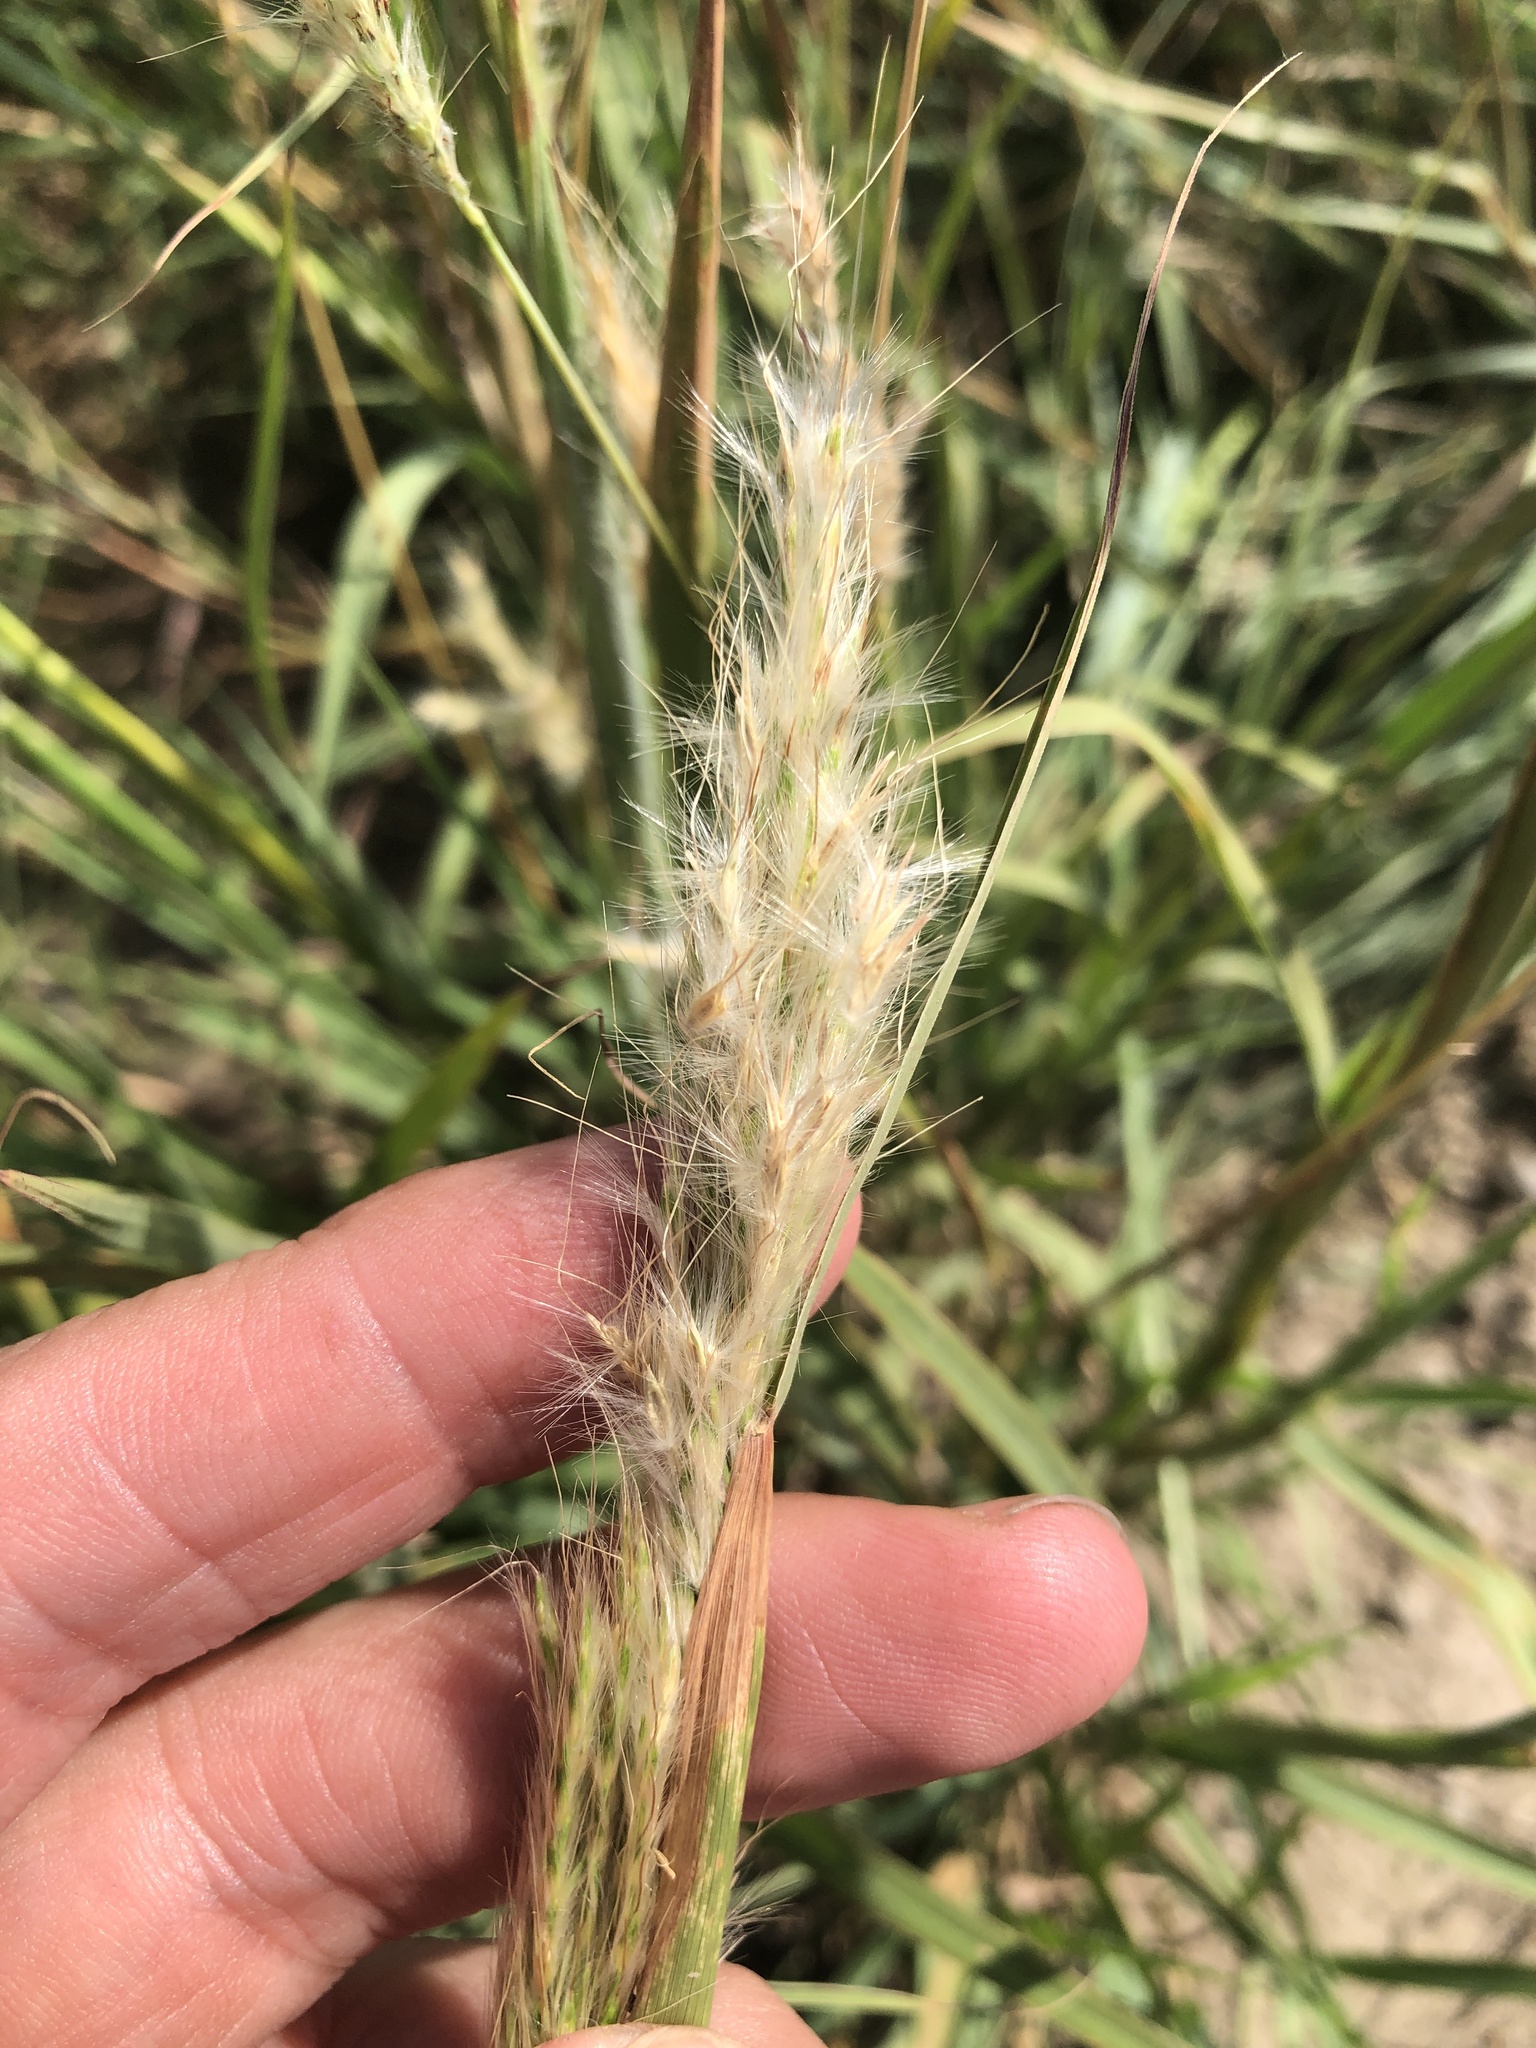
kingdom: Plantae
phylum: Tracheophyta
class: Liliopsida
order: Poales
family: Poaceae
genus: Bothriochloa
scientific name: Bothriochloa torreyana
